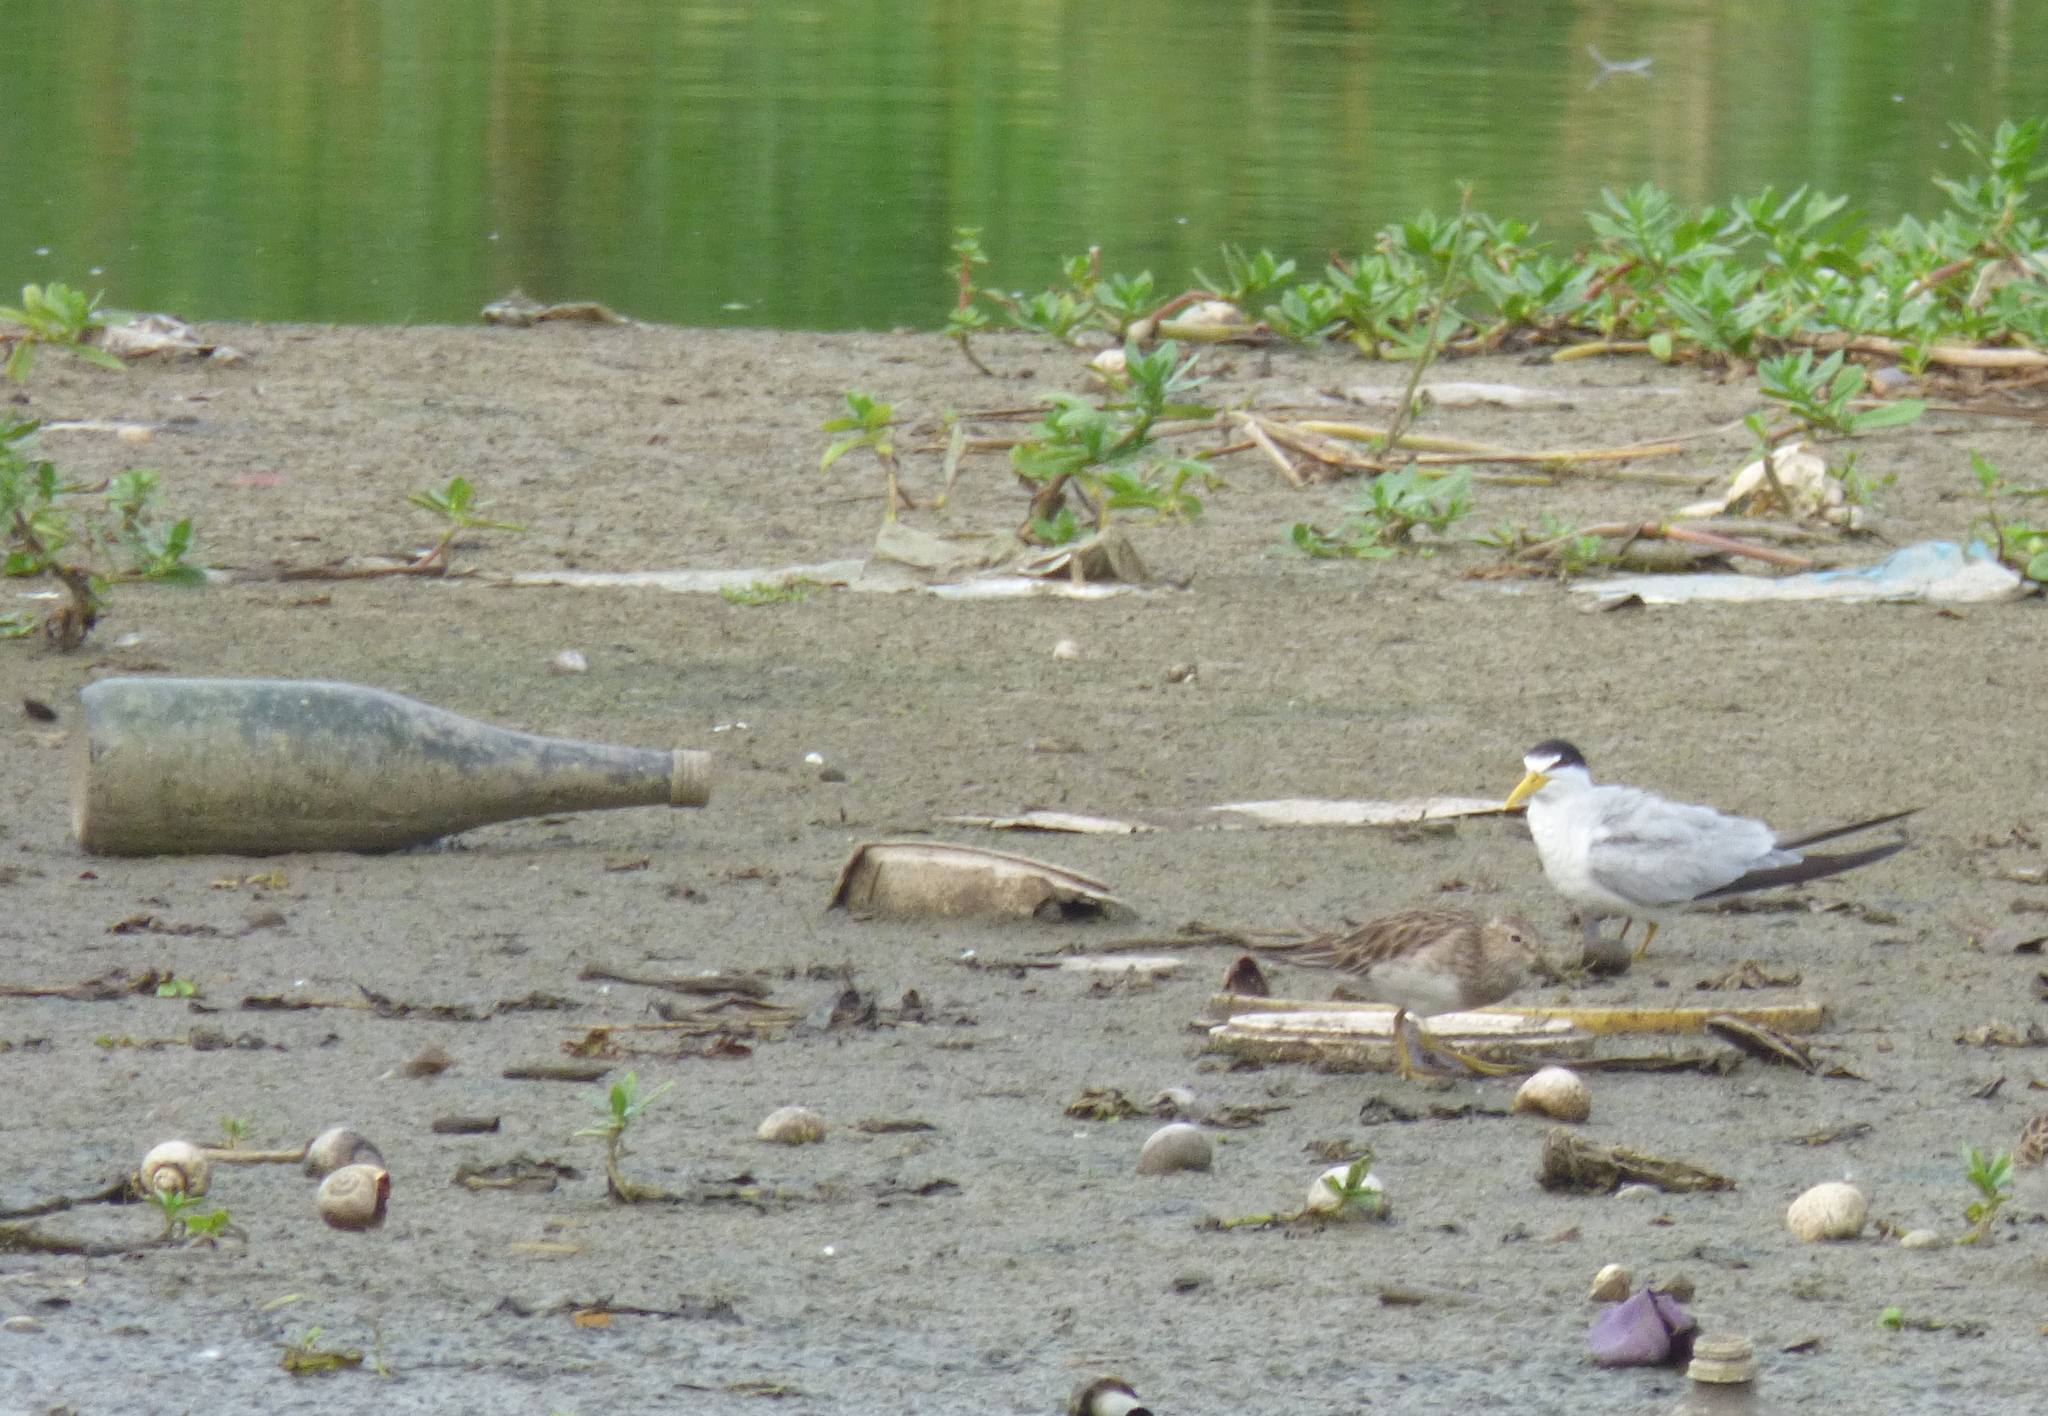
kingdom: Animalia
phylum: Chordata
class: Aves
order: Charadriiformes
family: Laridae
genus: Sternula
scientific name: Sternula superciliaris
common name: Yellow-billed tern
